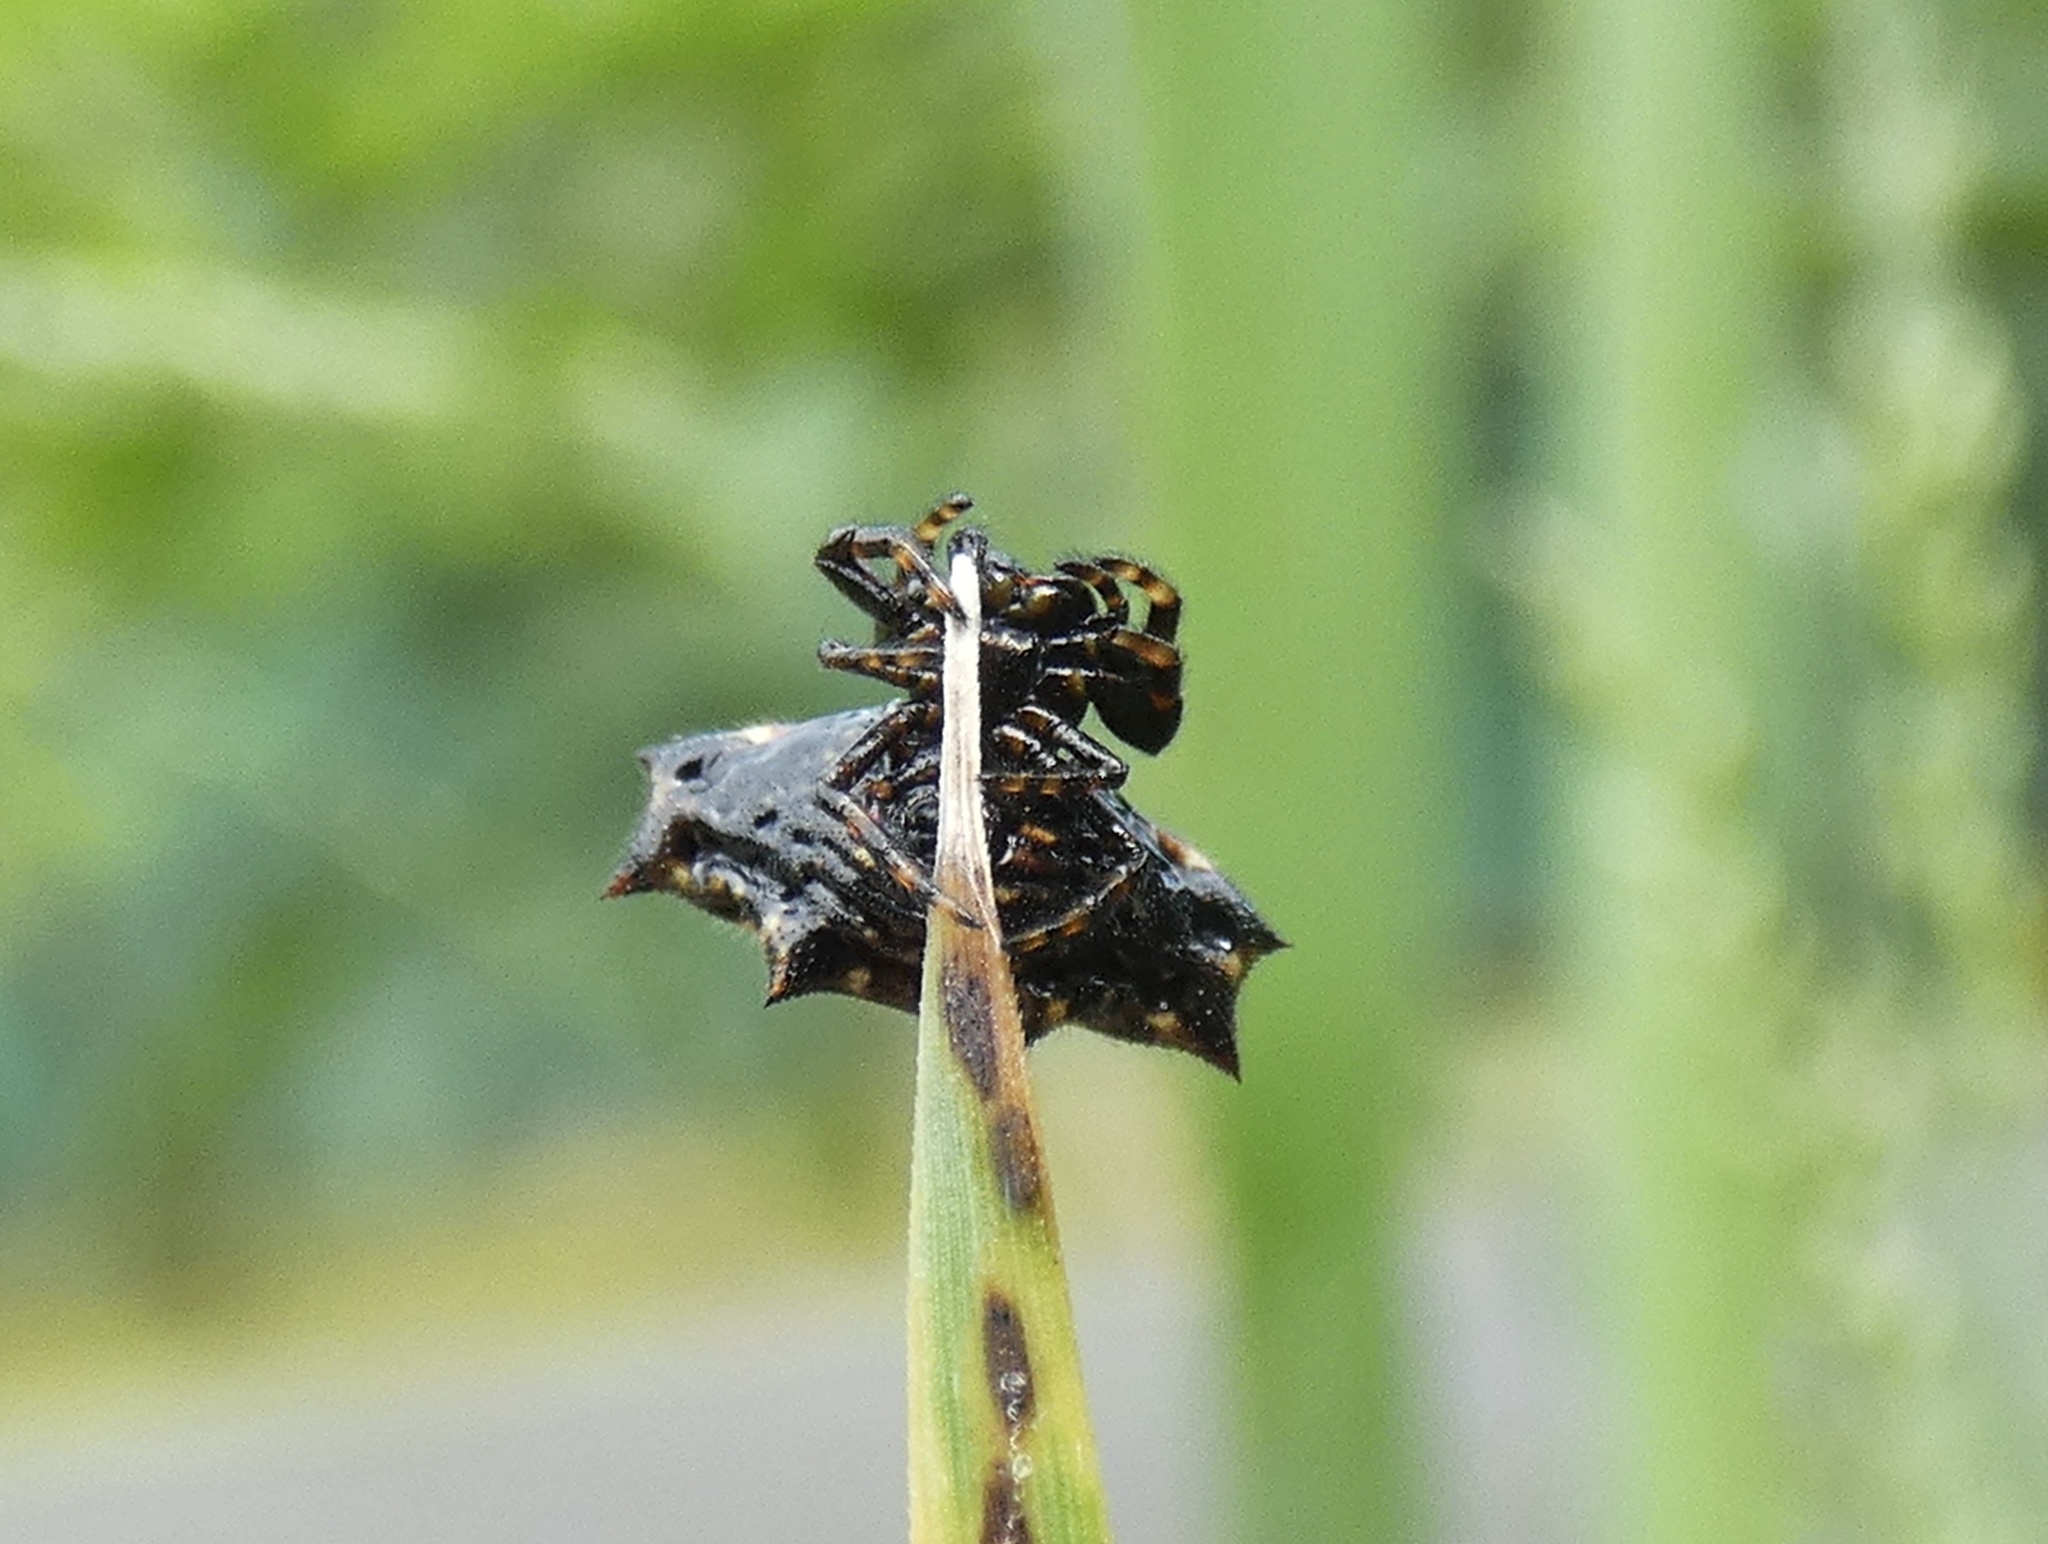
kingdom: Animalia
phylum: Arthropoda
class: Arachnida
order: Araneae
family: Araneidae
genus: Gasteracantha
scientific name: Gasteracantha cancriformis
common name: Orb weavers
